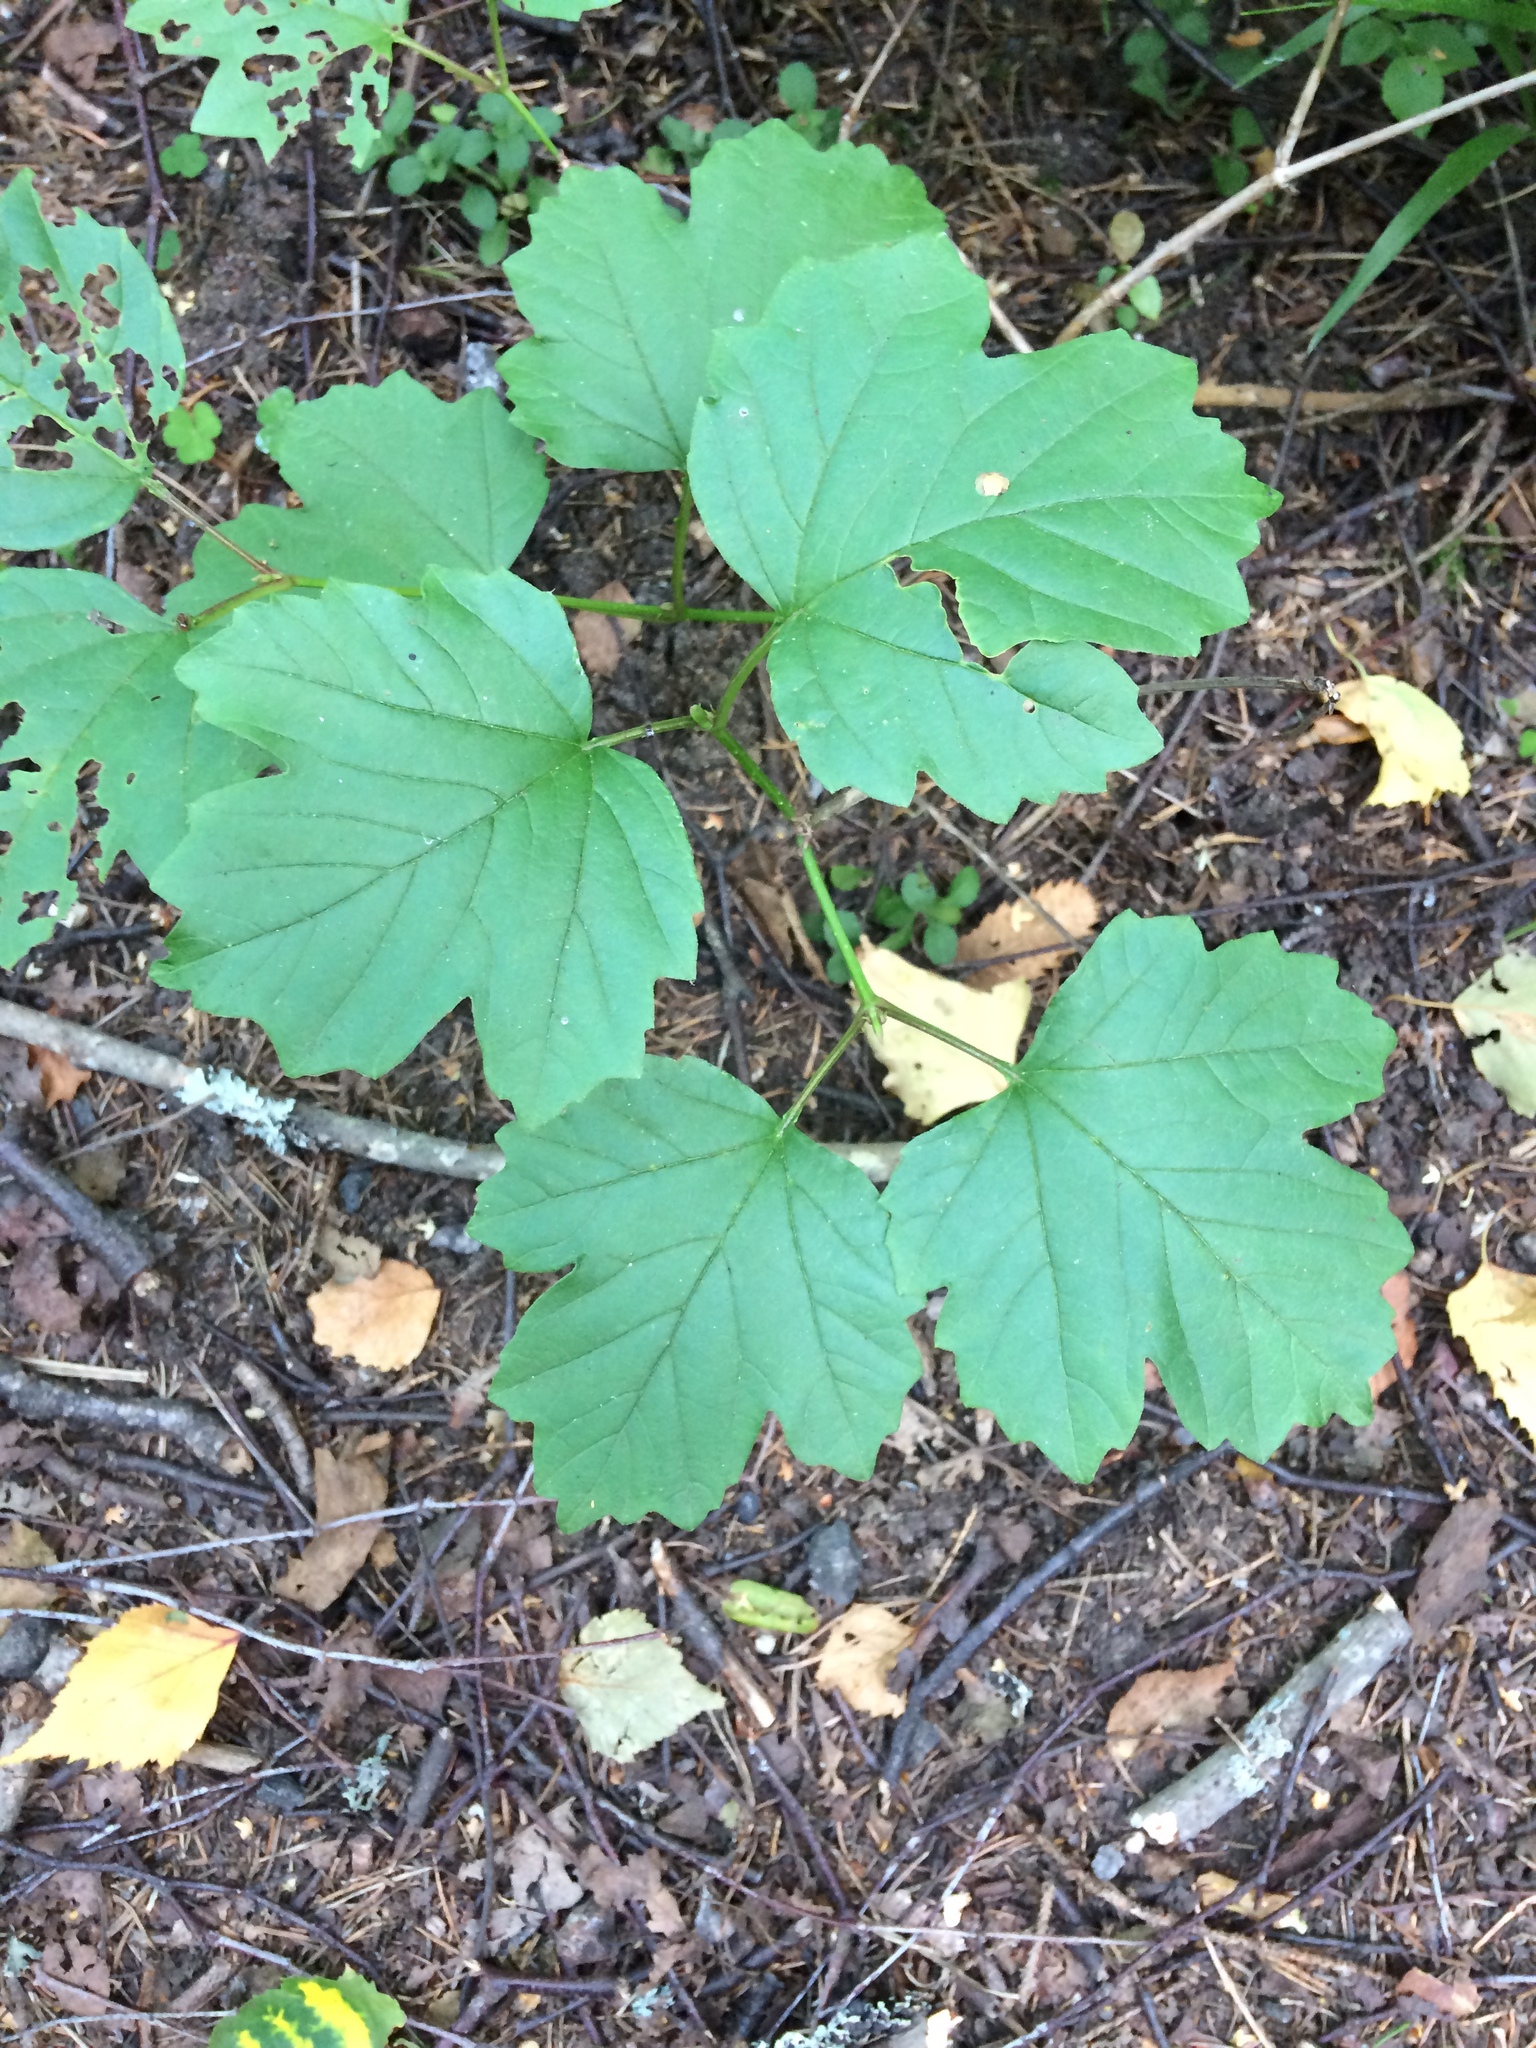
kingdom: Plantae
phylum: Tracheophyta
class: Magnoliopsida
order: Dipsacales
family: Viburnaceae
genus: Viburnum
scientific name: Viburnum opulus
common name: Guelder-rose
